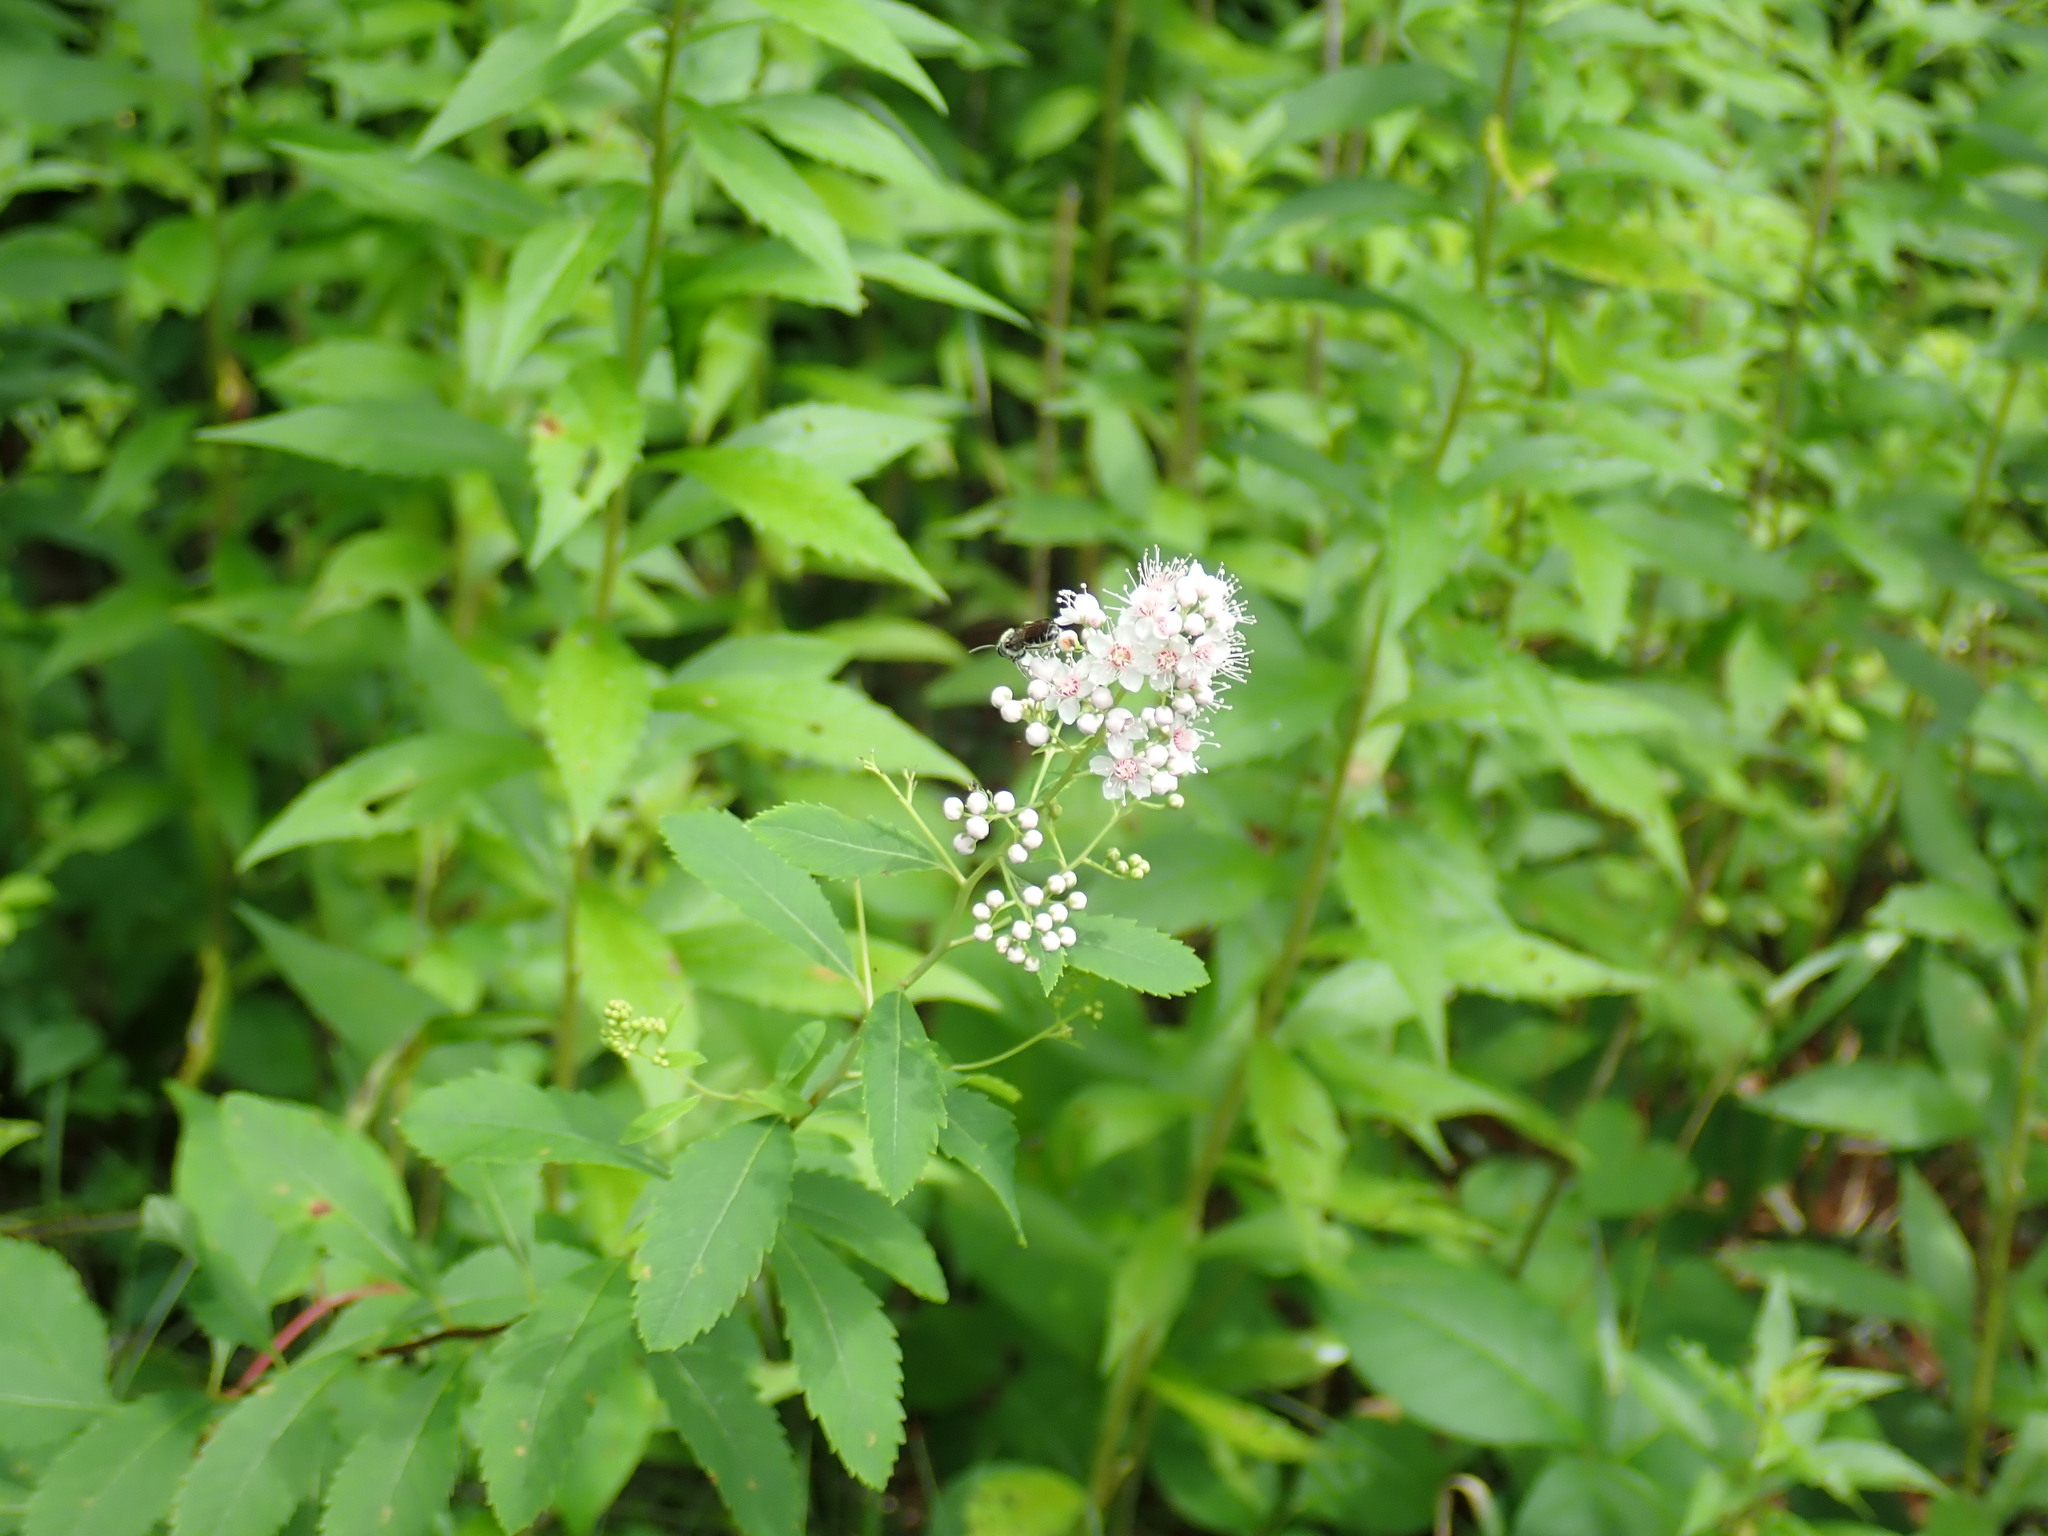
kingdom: Plantae
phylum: Tracheophyta
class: Magnoliopsida
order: Rosales
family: Rosaceae
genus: Spiraea
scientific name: Spiraea alba
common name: Pale bridewort
